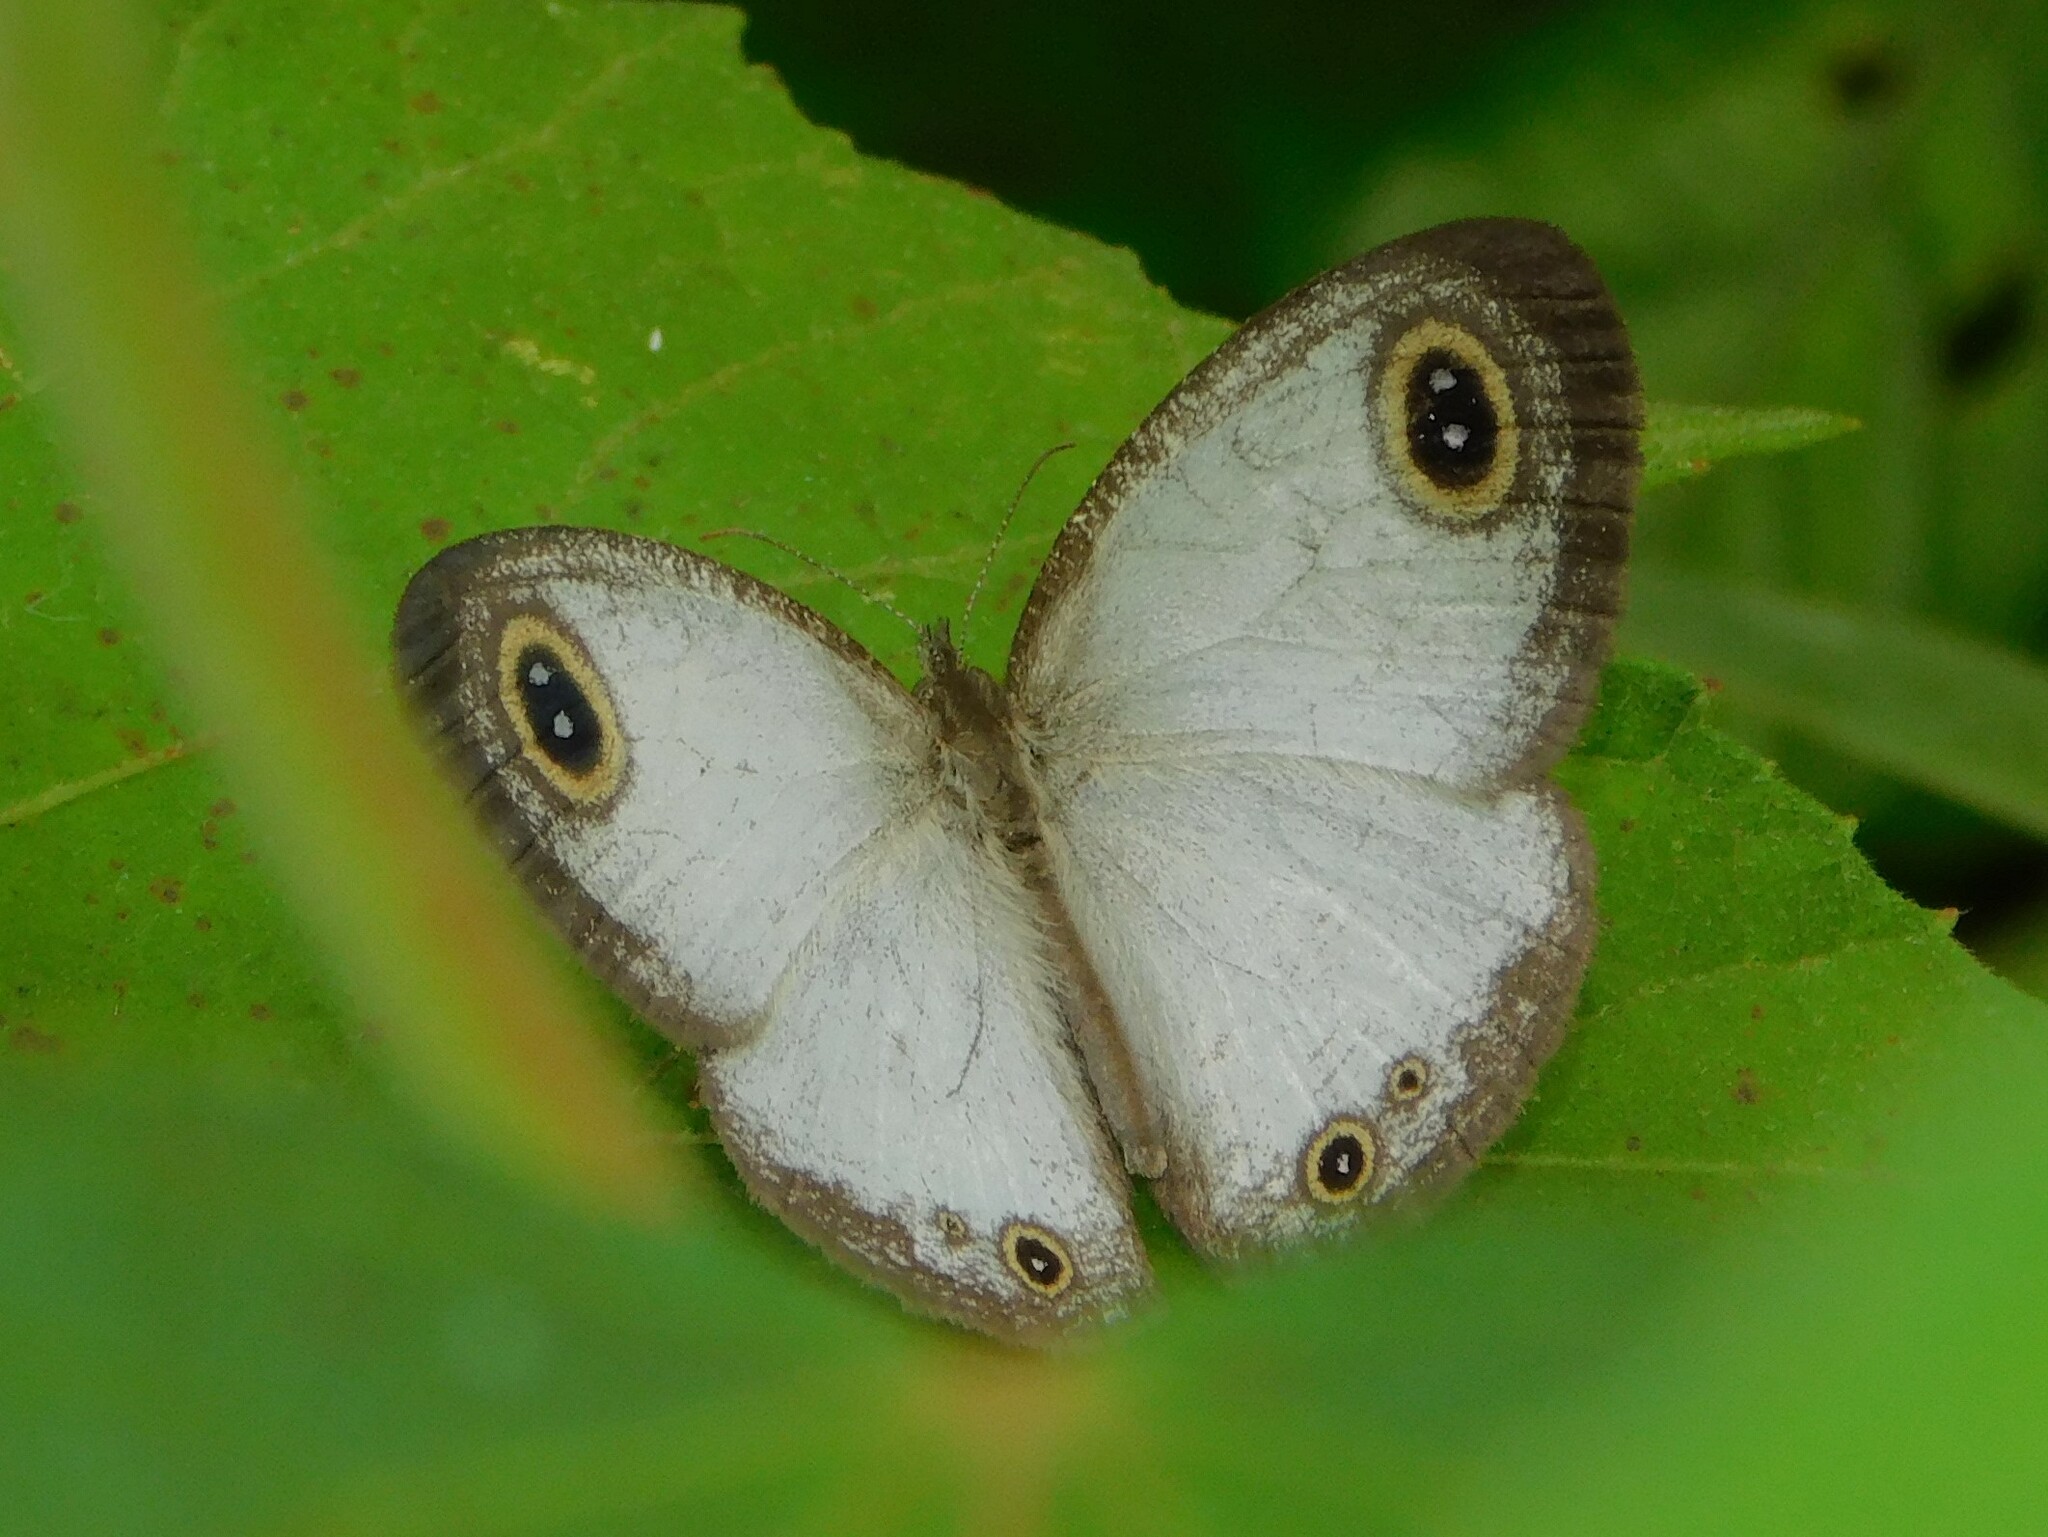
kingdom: Animalia
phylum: Arthropoda
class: Insecta
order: Lepidoptera
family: Nymphalidae
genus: Ypthima
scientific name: Ypthima albida
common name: Silver ringlet
